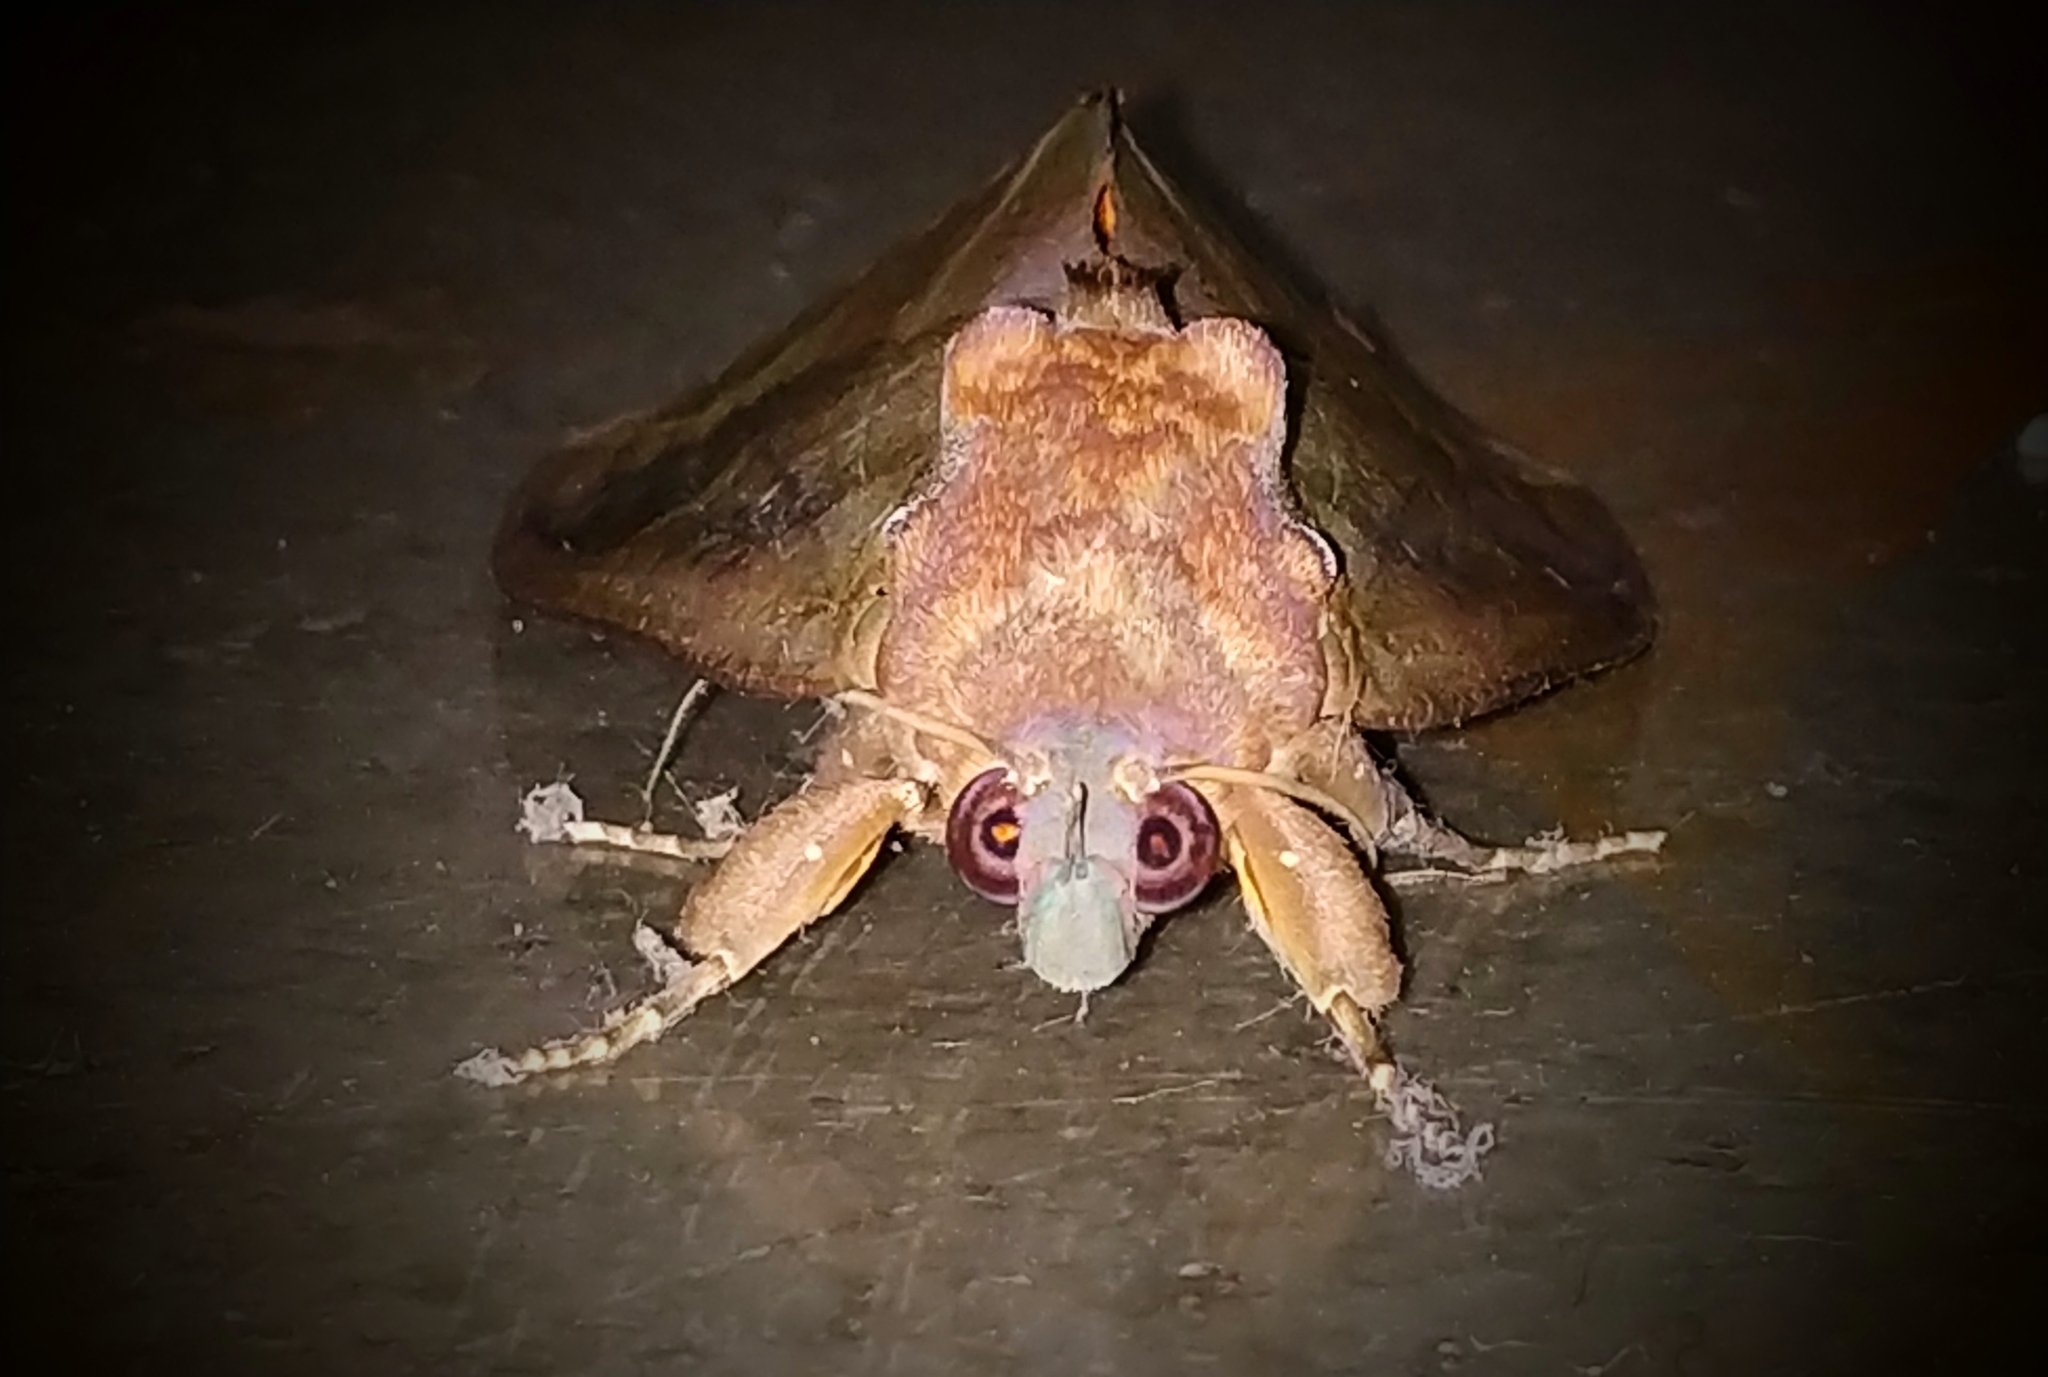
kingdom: Animalia
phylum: Arthropoda
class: Insecta
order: Lepidoptera
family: Erebidae
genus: Eudocima
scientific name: Eudocima phalonia
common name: Wasp
